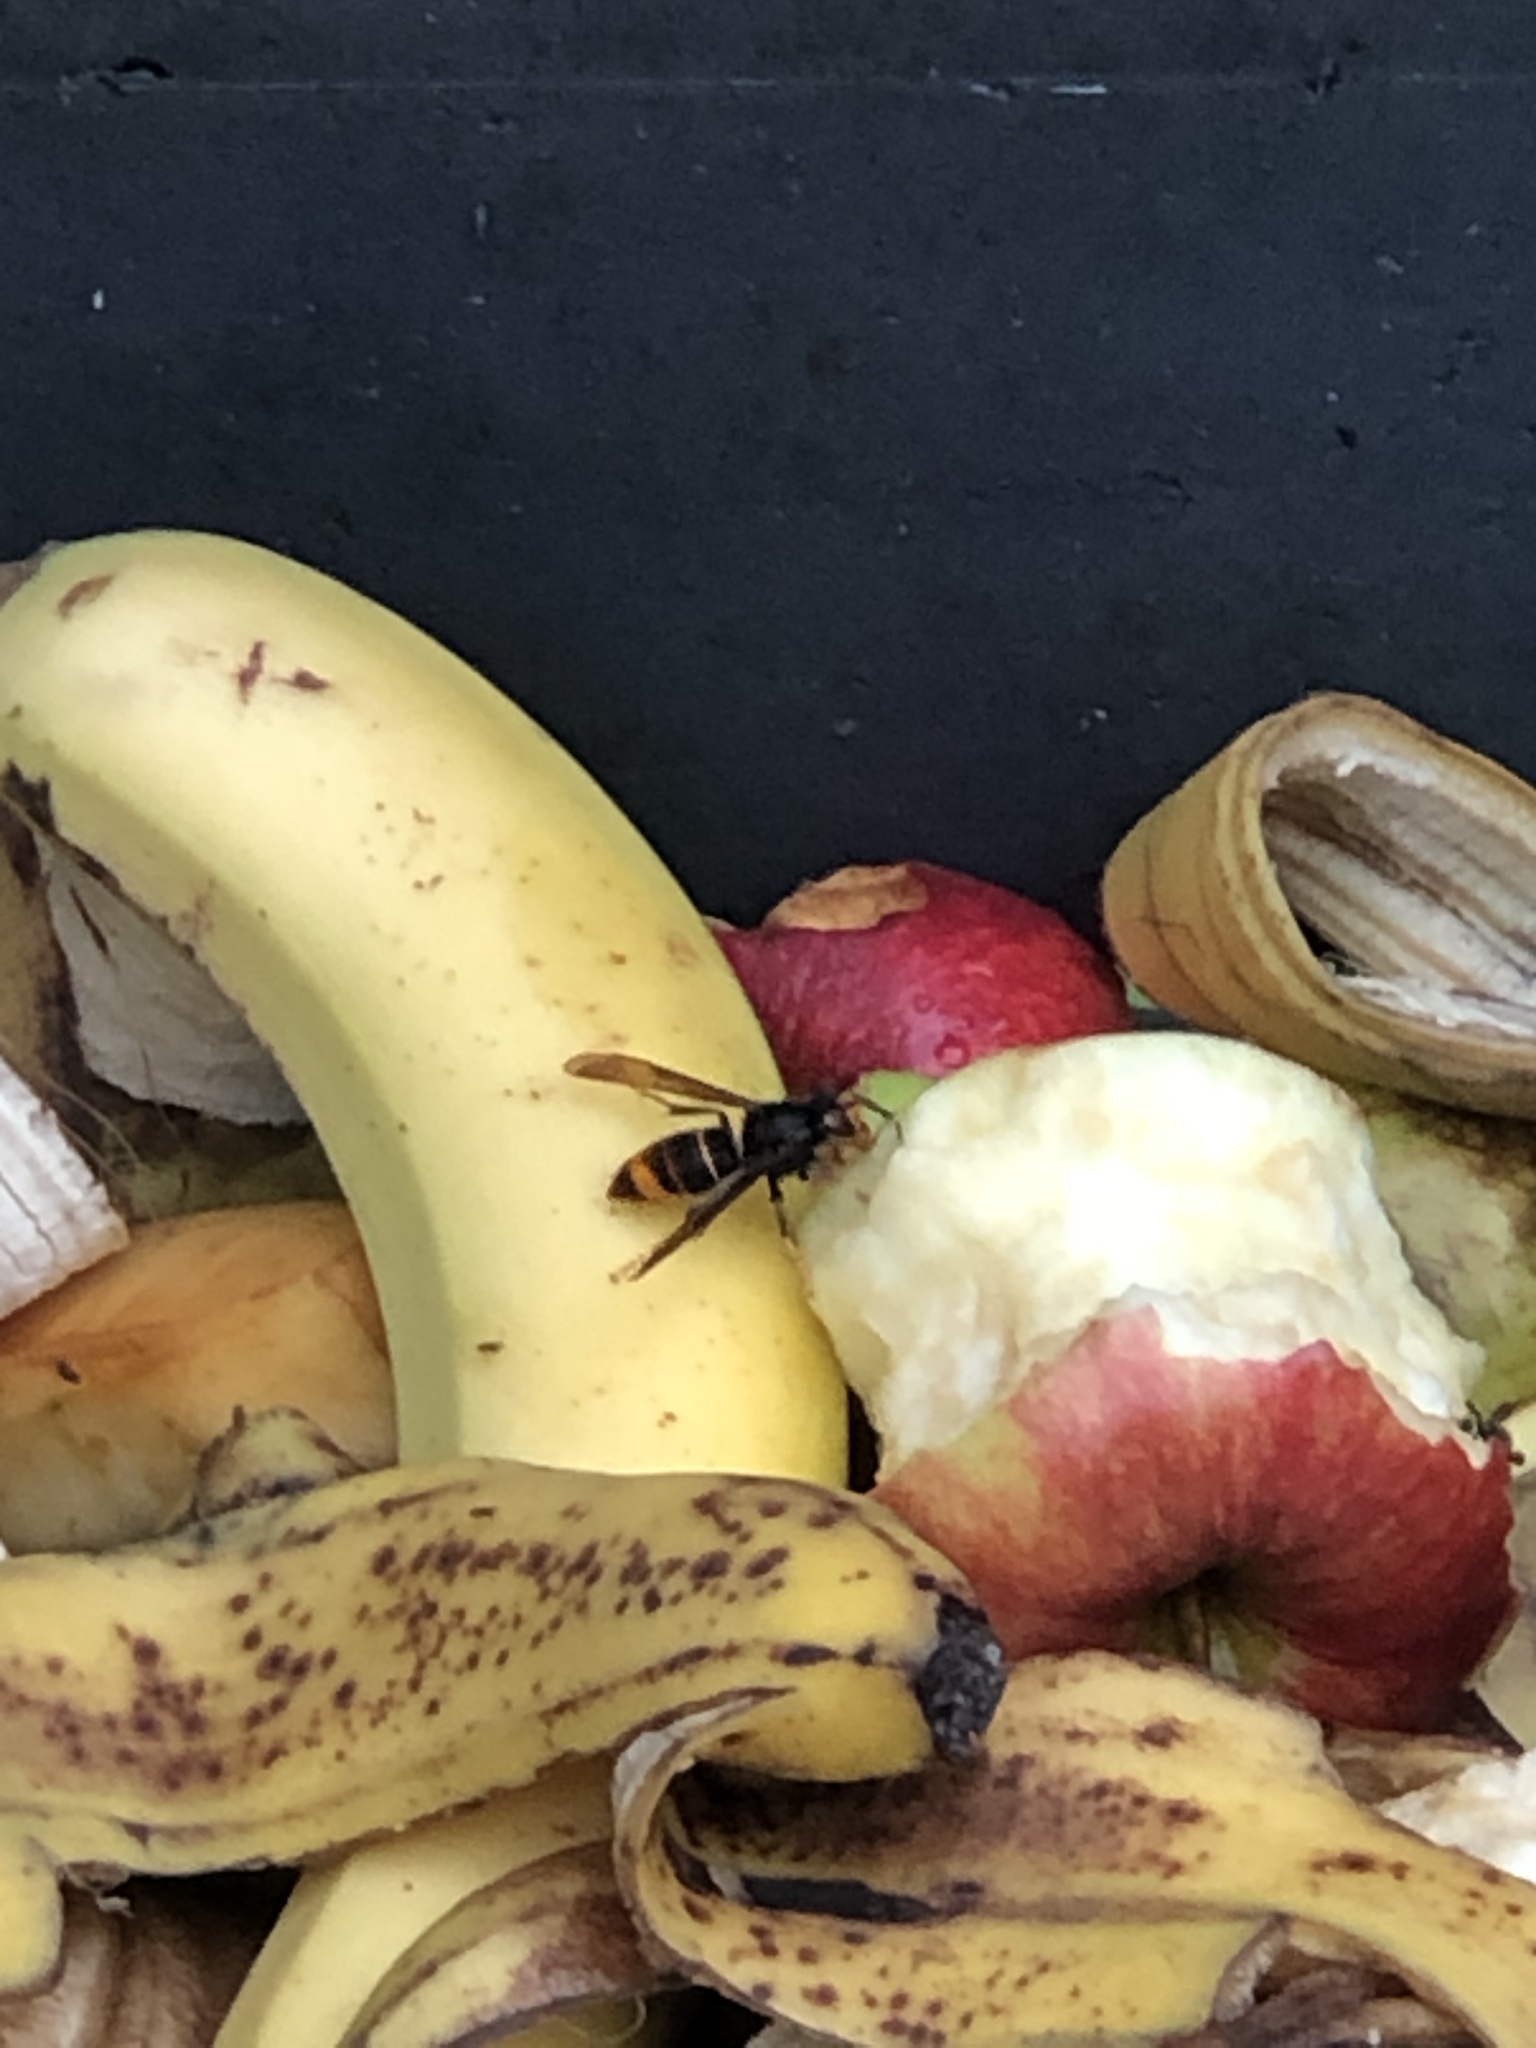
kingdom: Animalia
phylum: Arthropoda
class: Insecta
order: Hymenoptera
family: Vespidae
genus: Vespa
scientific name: Vespa velutina
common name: Asian hornet
